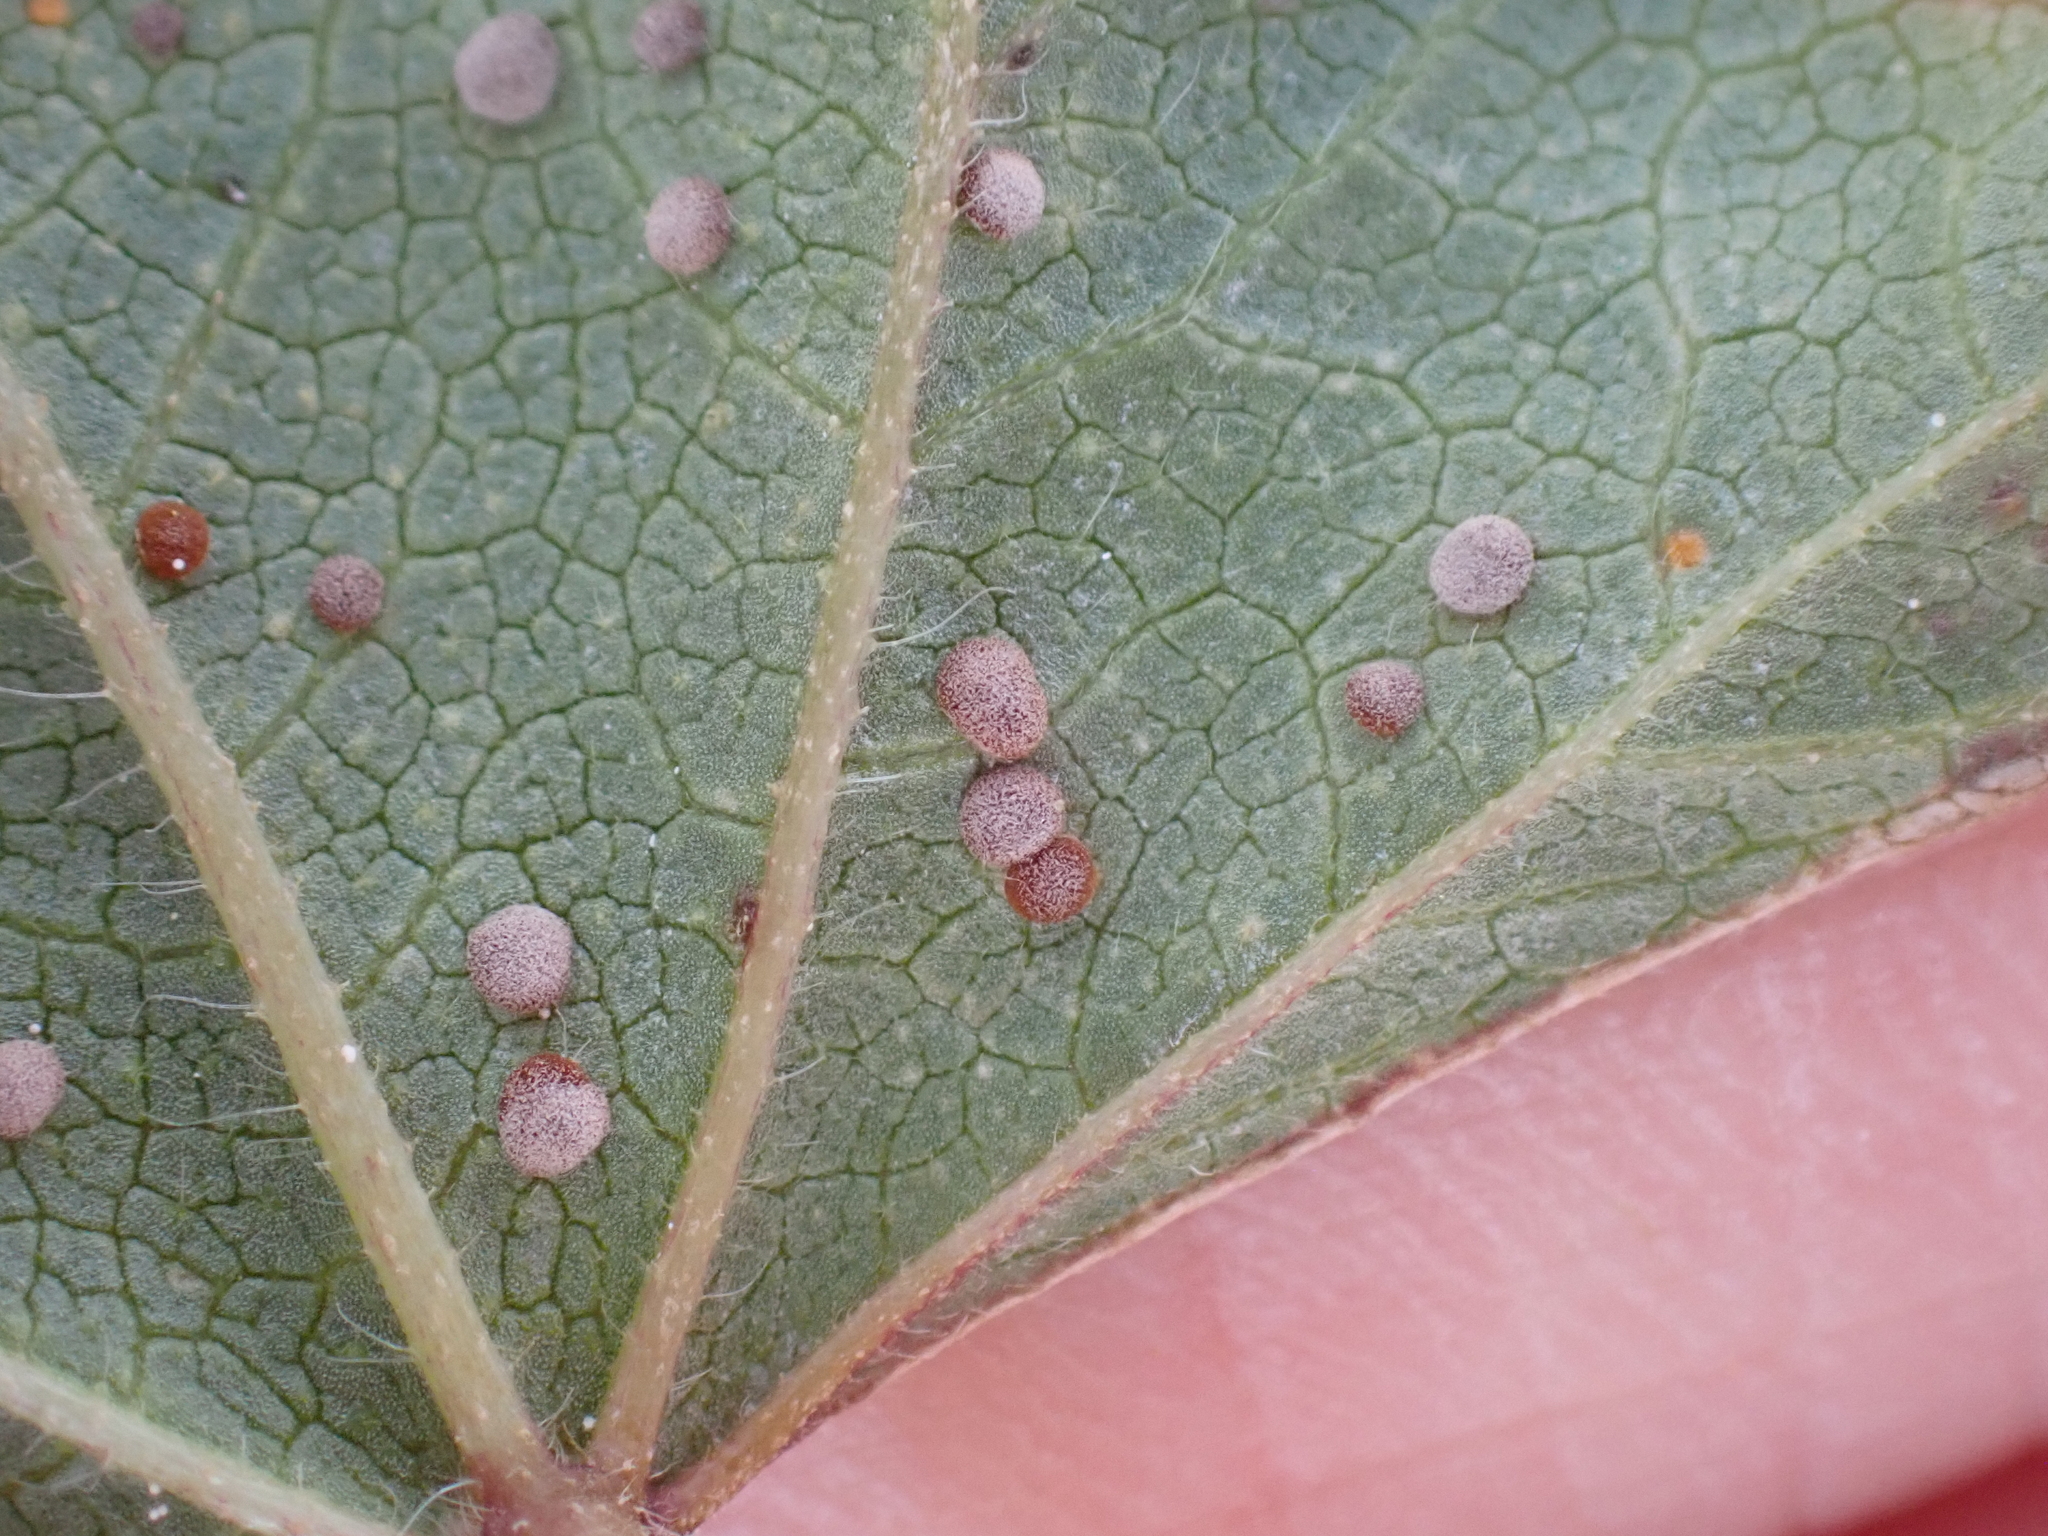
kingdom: Plantae
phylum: Tracheophyta
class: Magnoliopsida
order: Malvales
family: Malvaceae
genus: Malva
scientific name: Malva sylvestris
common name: Common mallow
